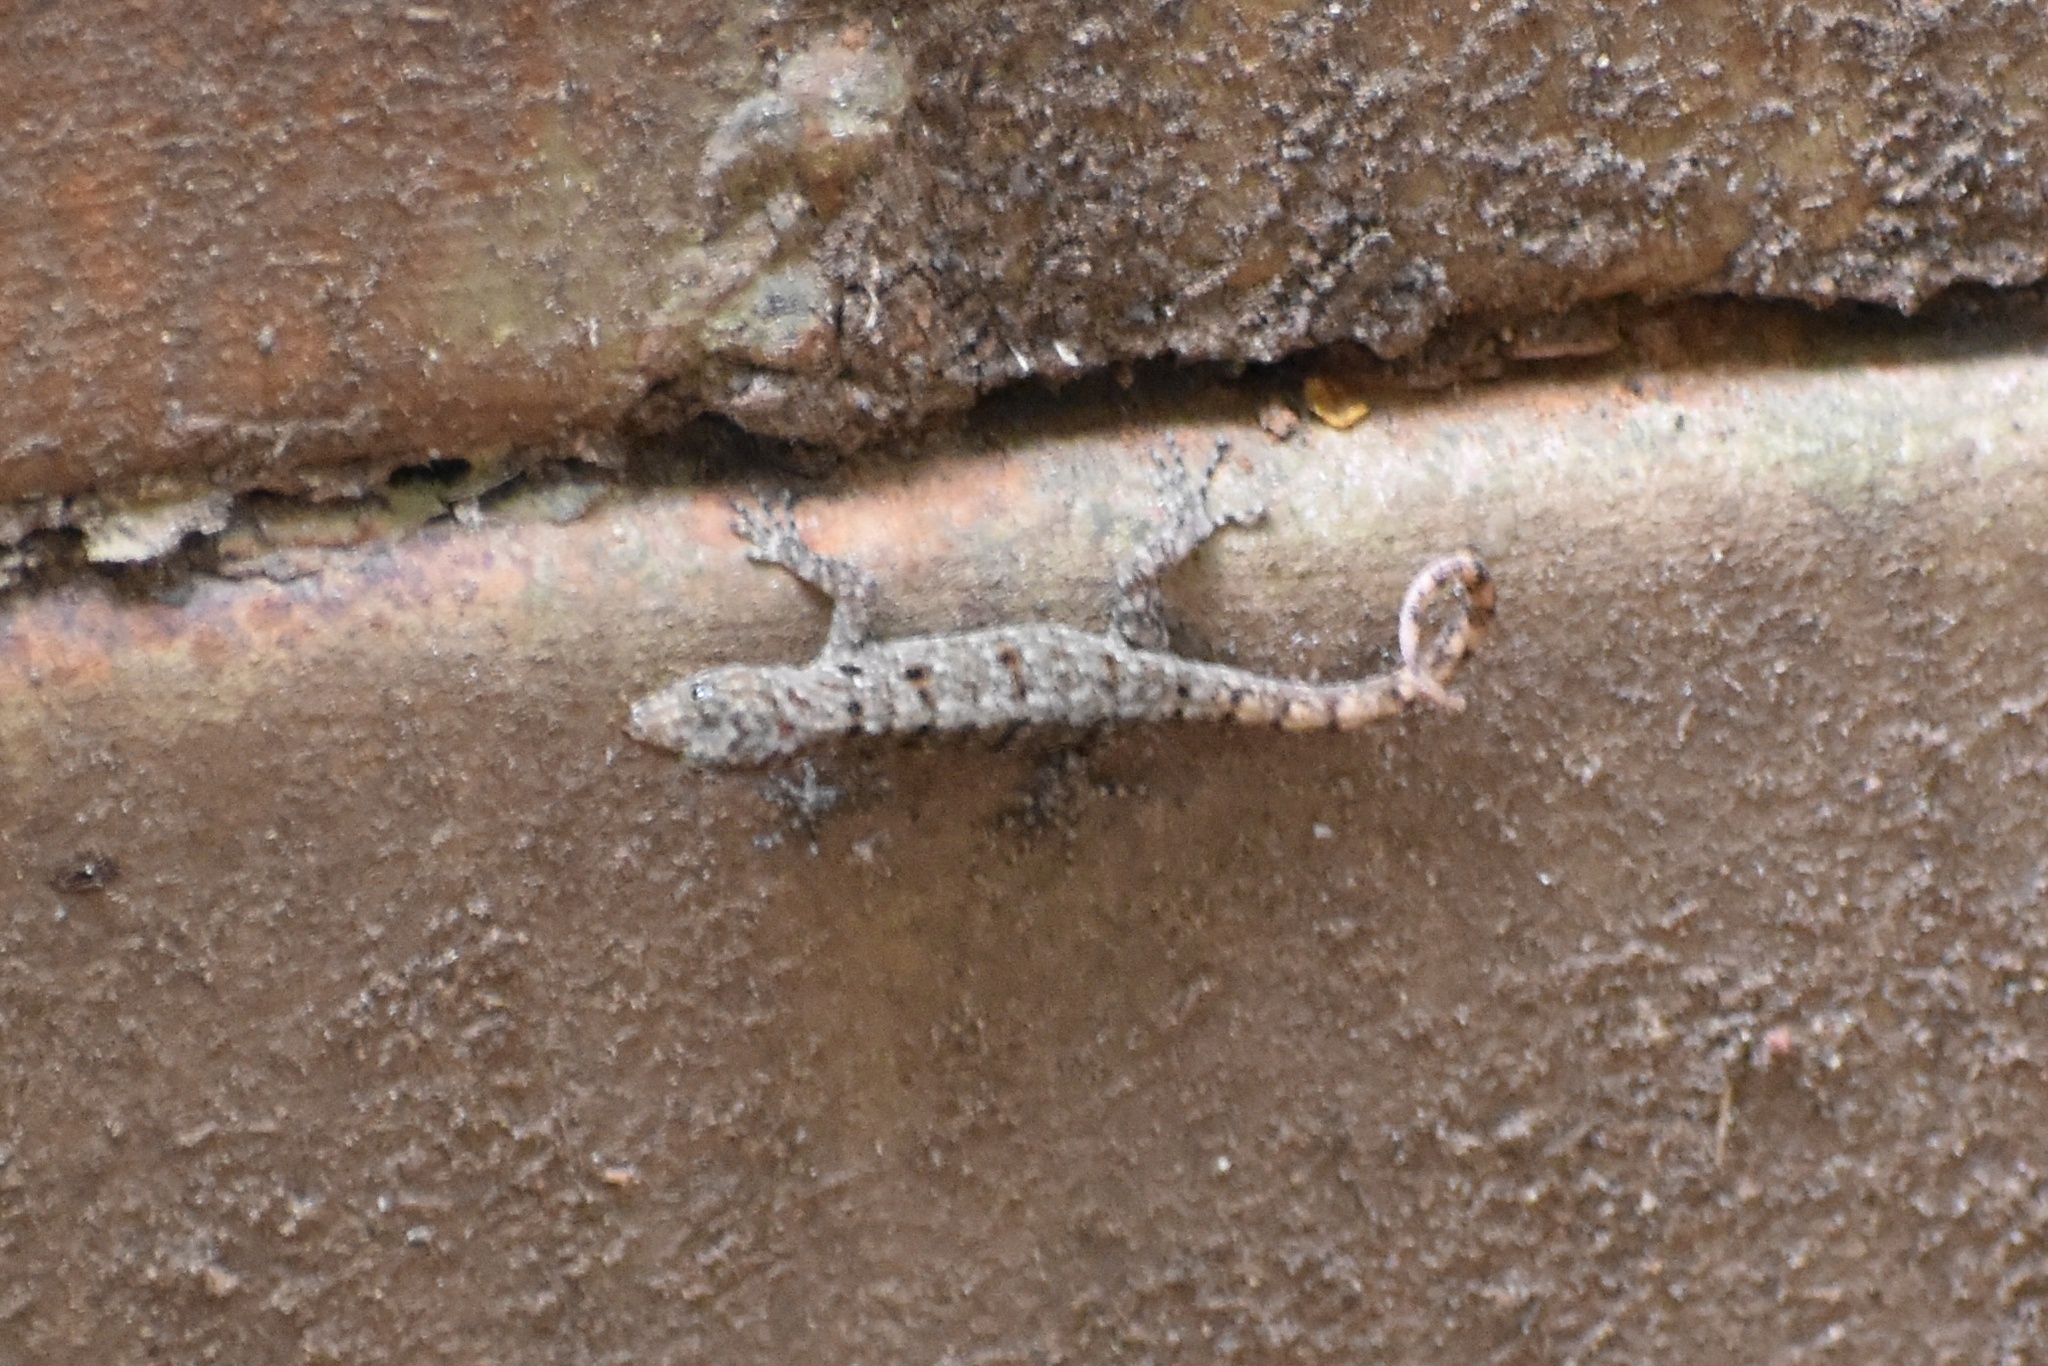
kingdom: Animalia
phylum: Chordata
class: Squamata
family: Sphaerodactylidae
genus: Gonatodes
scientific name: Gonatodes albogularis
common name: Yellow-headed gecko
